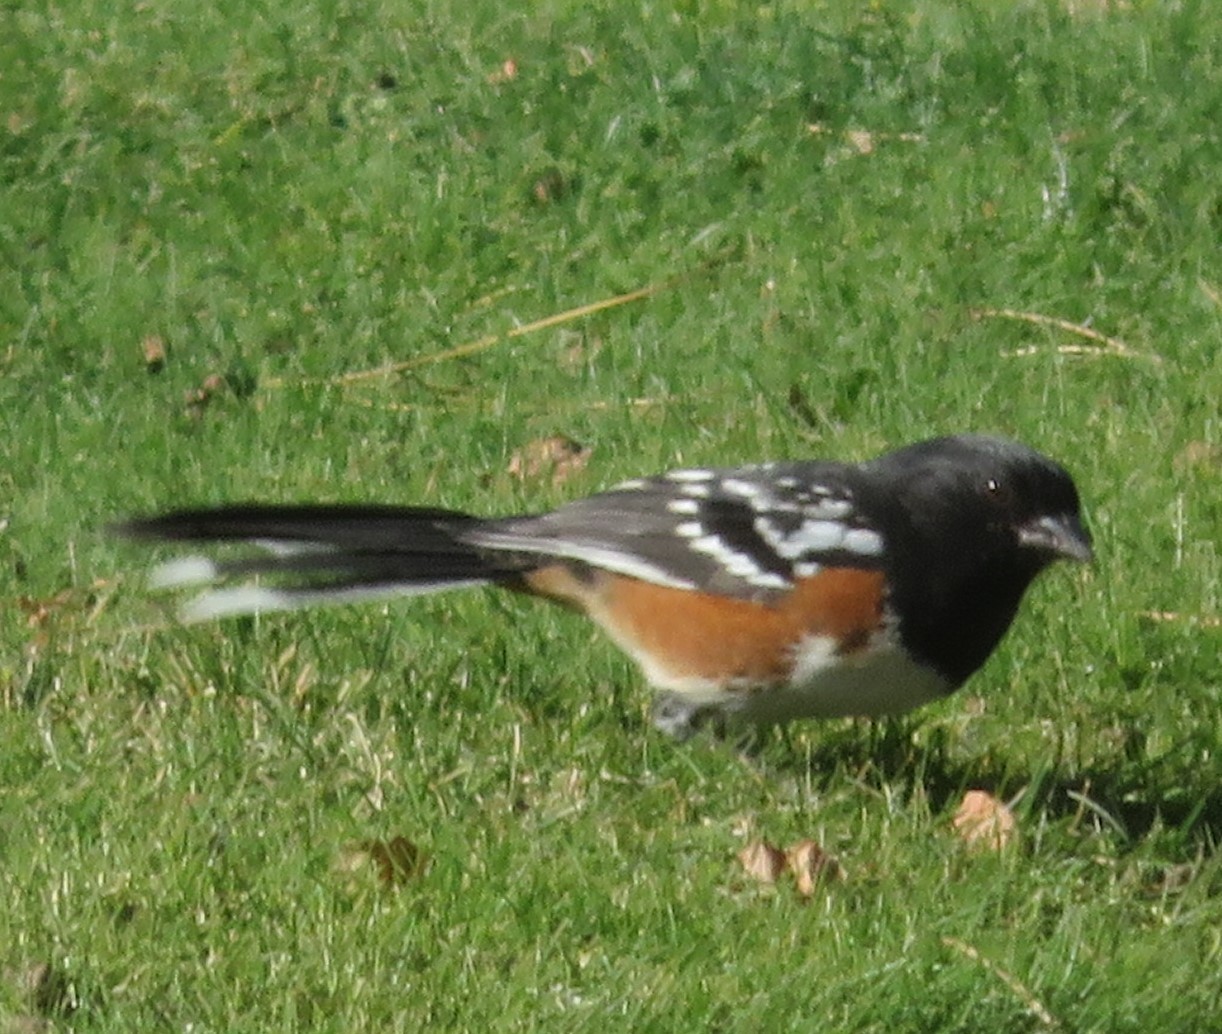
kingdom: Animalia
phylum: Chordata
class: Aves
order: Passeriformes
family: Passerellidae
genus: Pipilo
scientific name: Pipilo maculatus
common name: Spotted towhee
